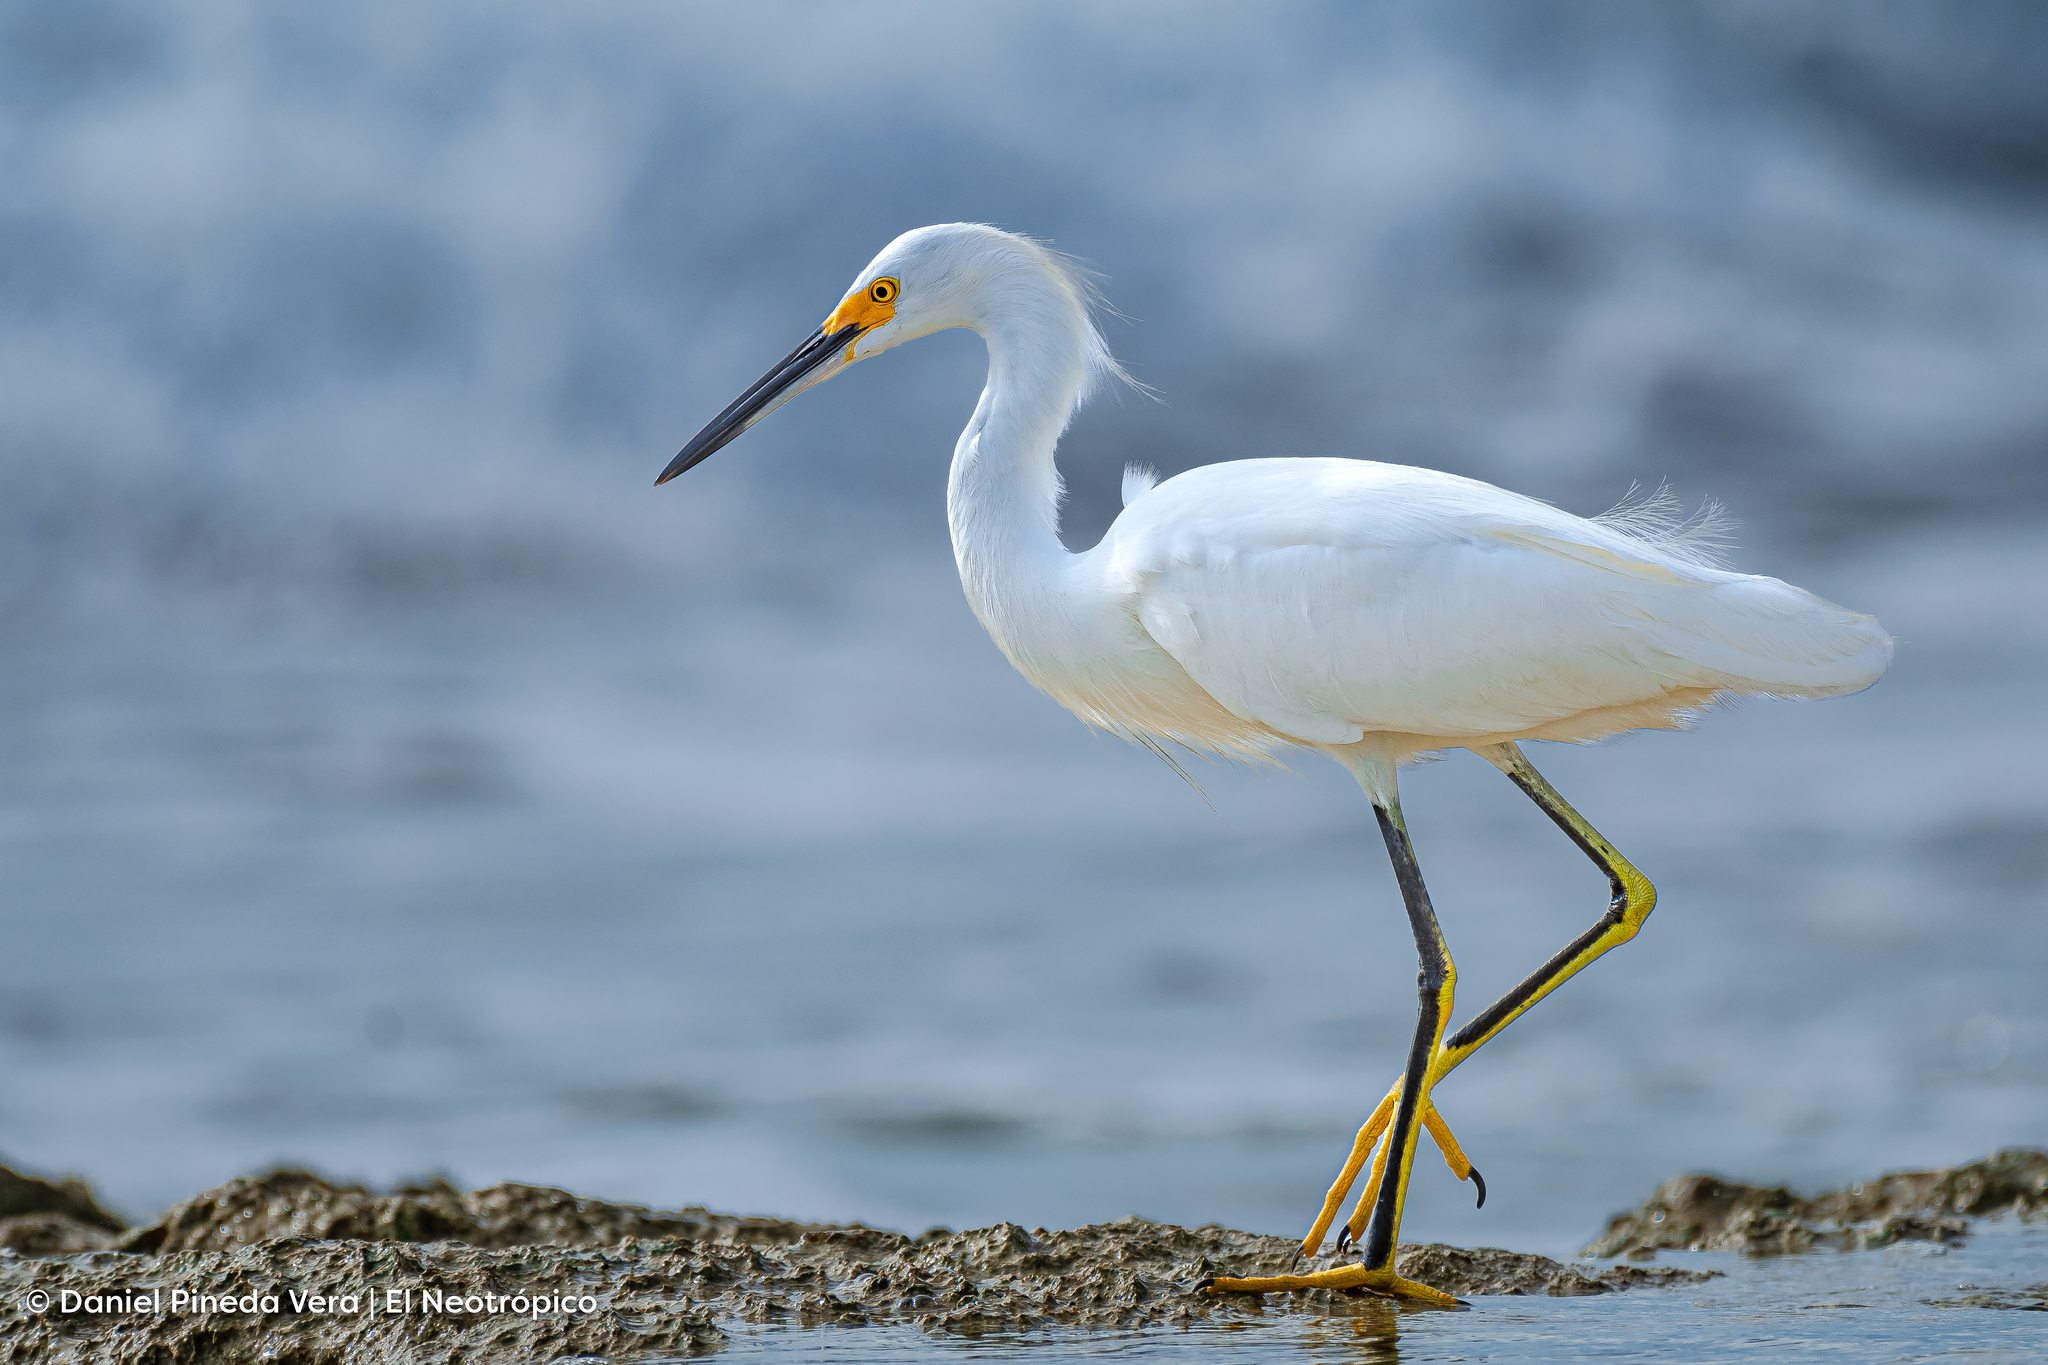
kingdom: Animalia
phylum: Chordata
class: Aves
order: Pelecaniformes
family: Ardeidae
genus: Egretta
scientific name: Egretta thula
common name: Snowy egret
